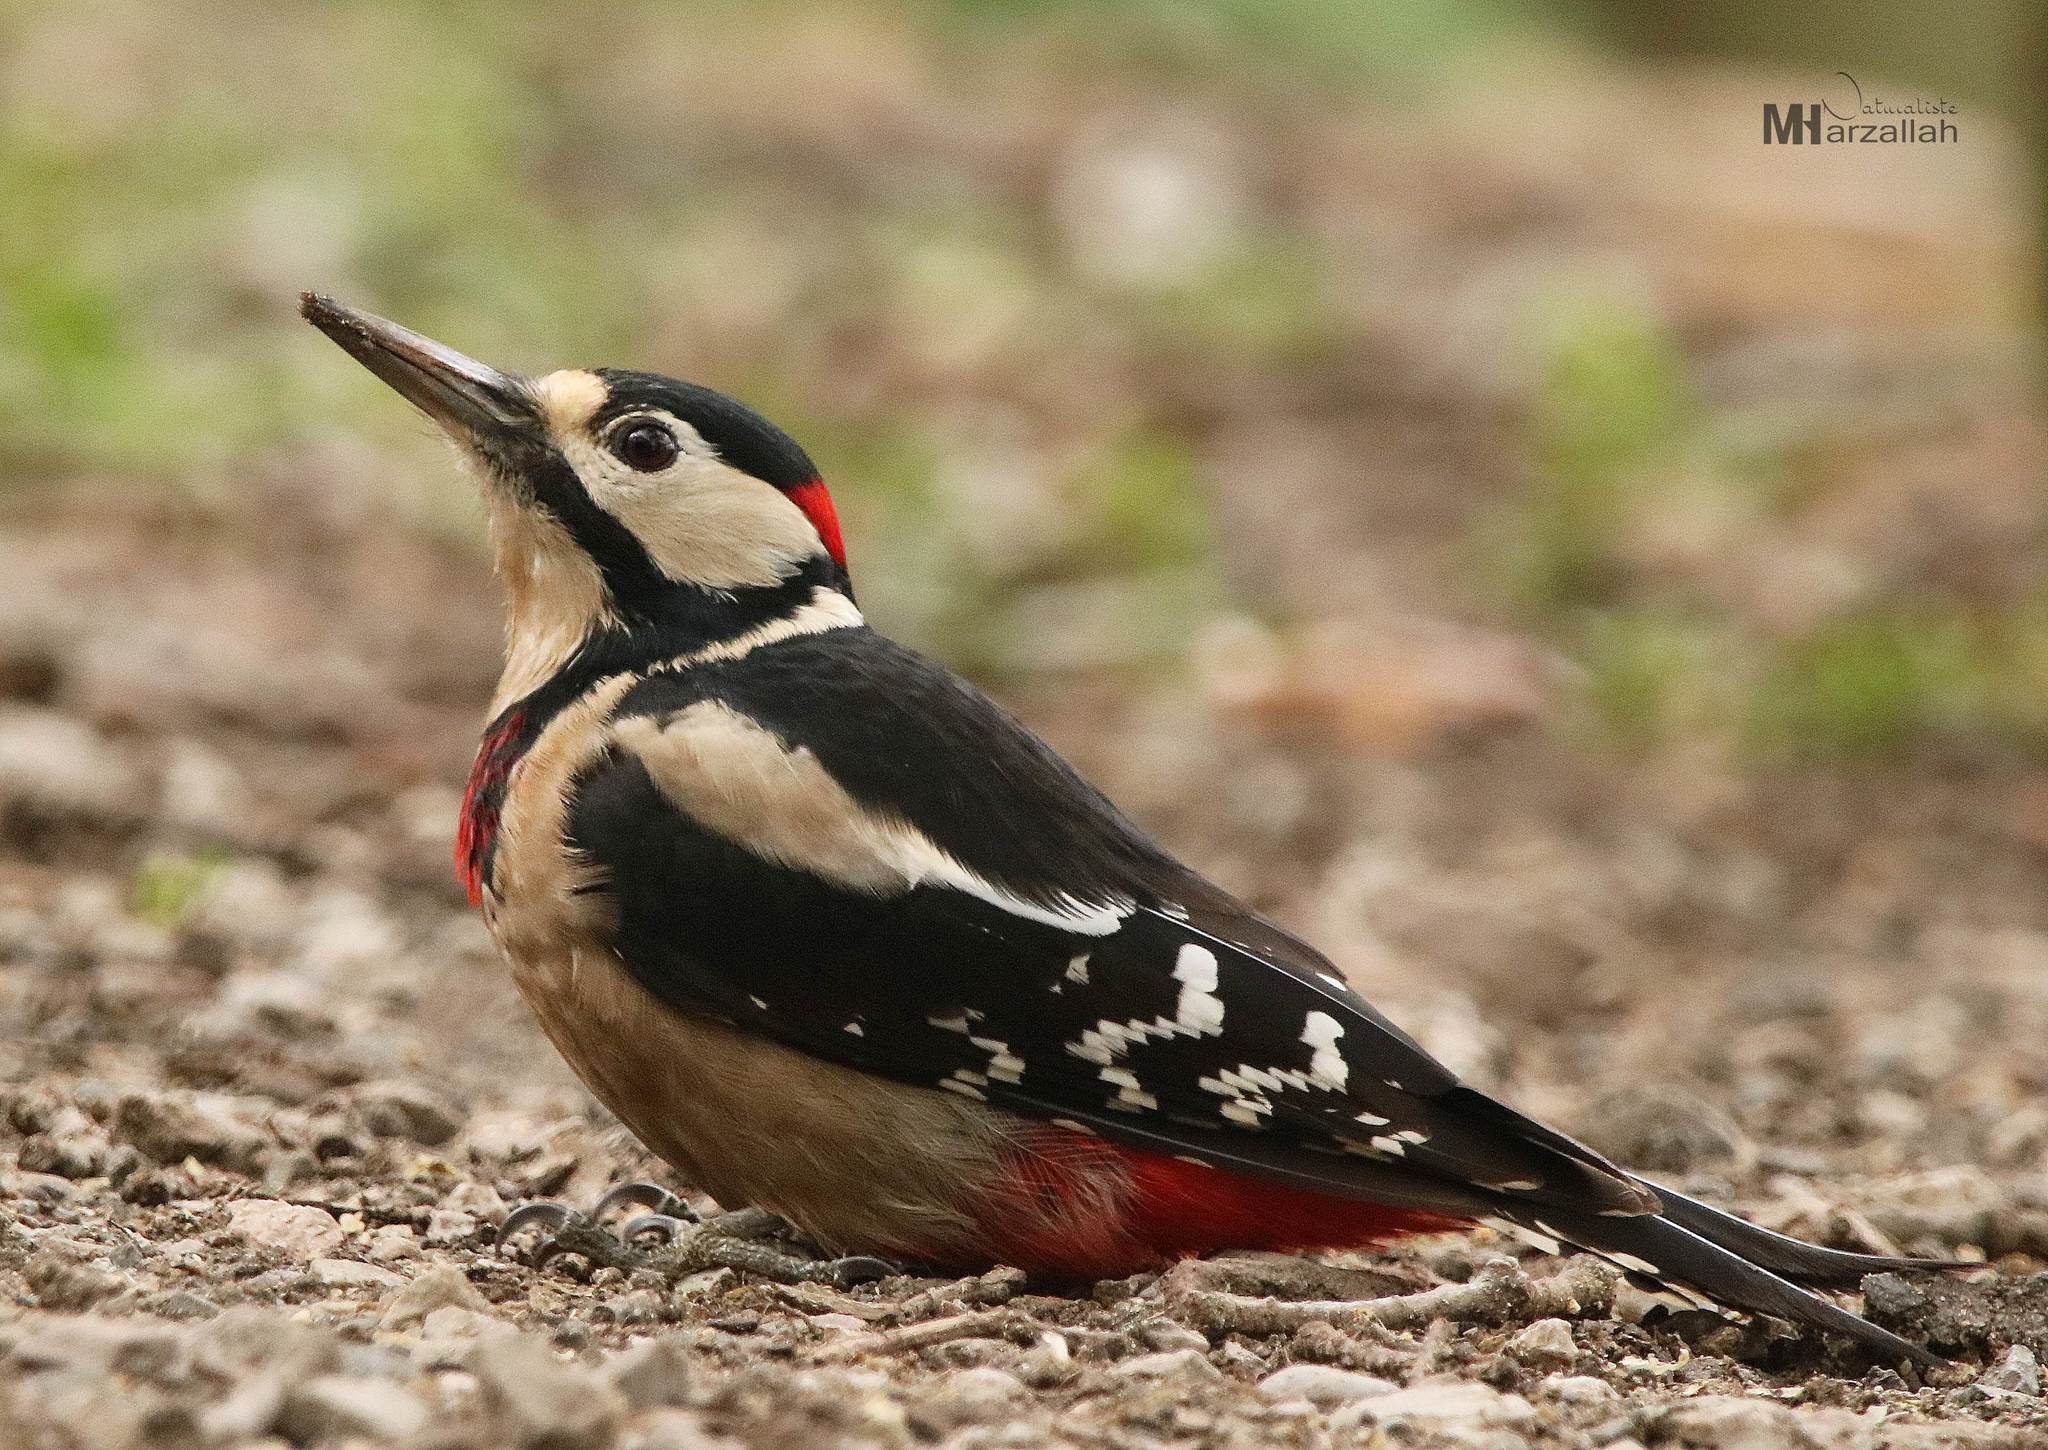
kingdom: Animalia
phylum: Chordata
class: Aves
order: Piciformes
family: Picidae
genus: Dendrocopos
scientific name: Dendrocopos major
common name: Great spotted woodpecker
